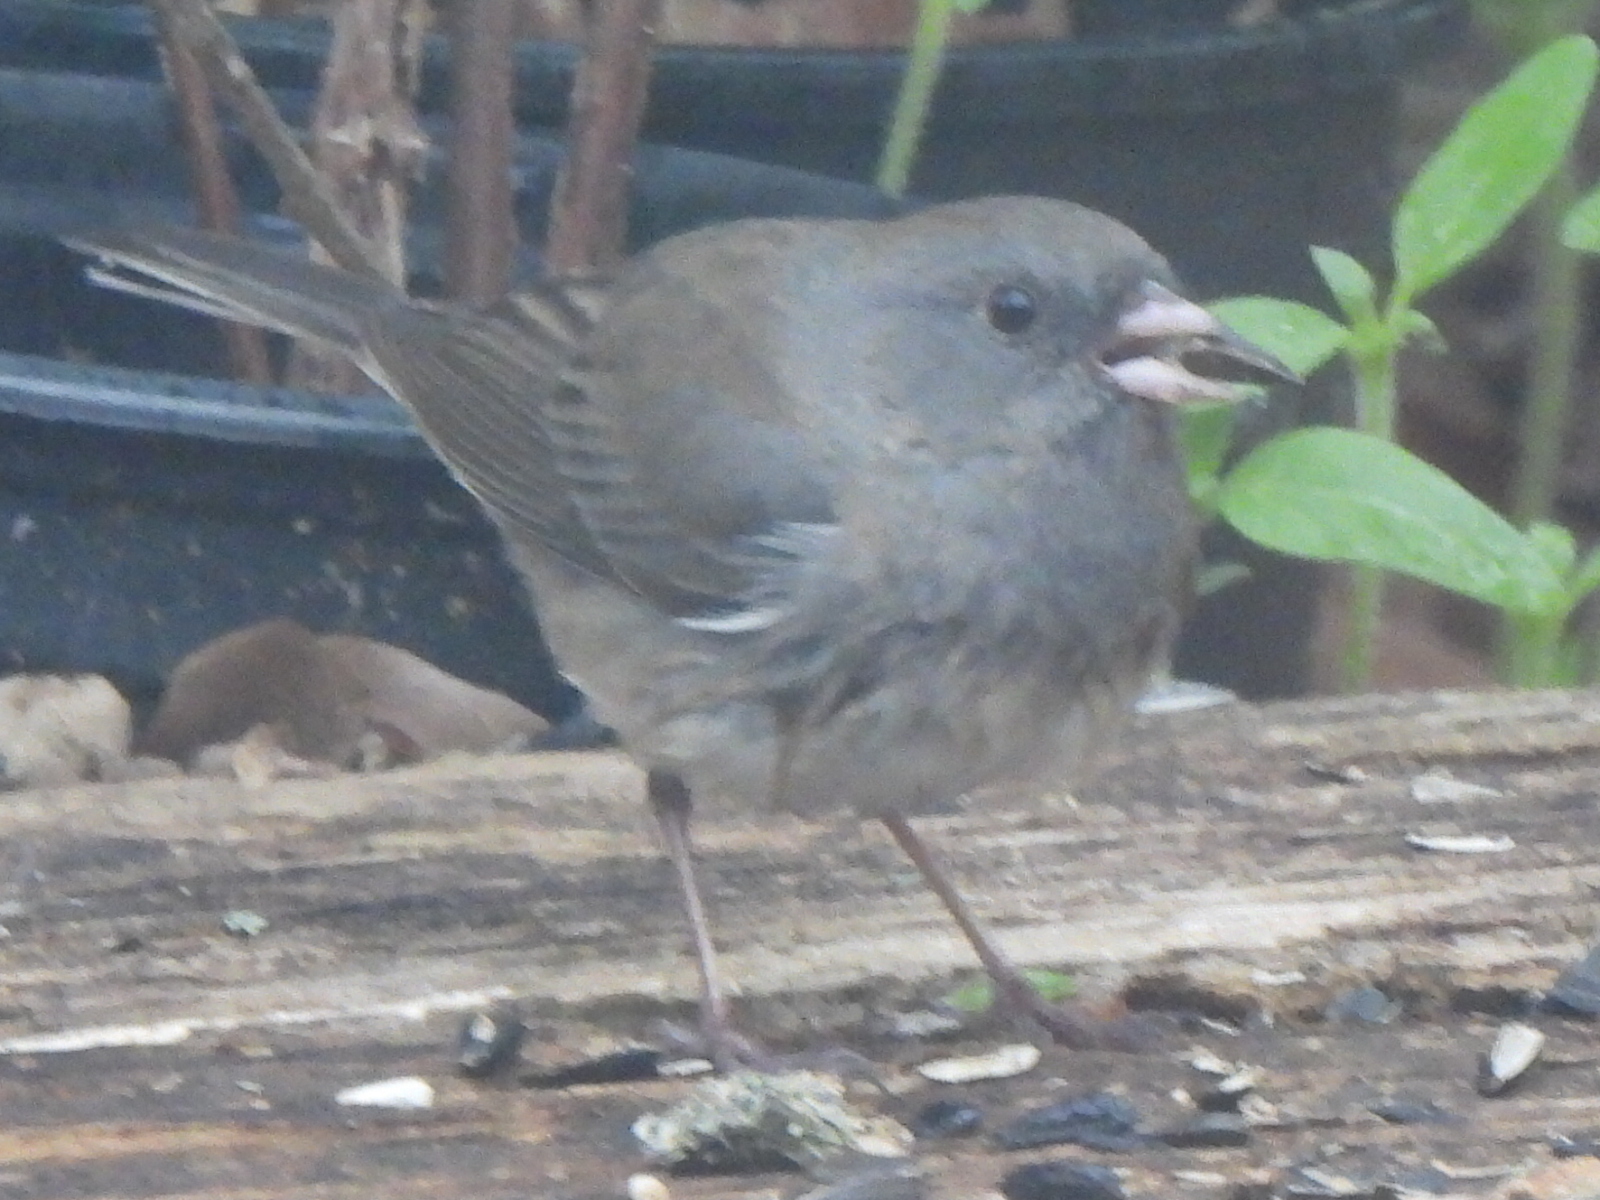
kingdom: Animalia
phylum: Chordata
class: Aves
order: Passeriformes
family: Passerellidae
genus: Junco
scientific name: Junco hyemalis
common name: Dark-eyed junco
